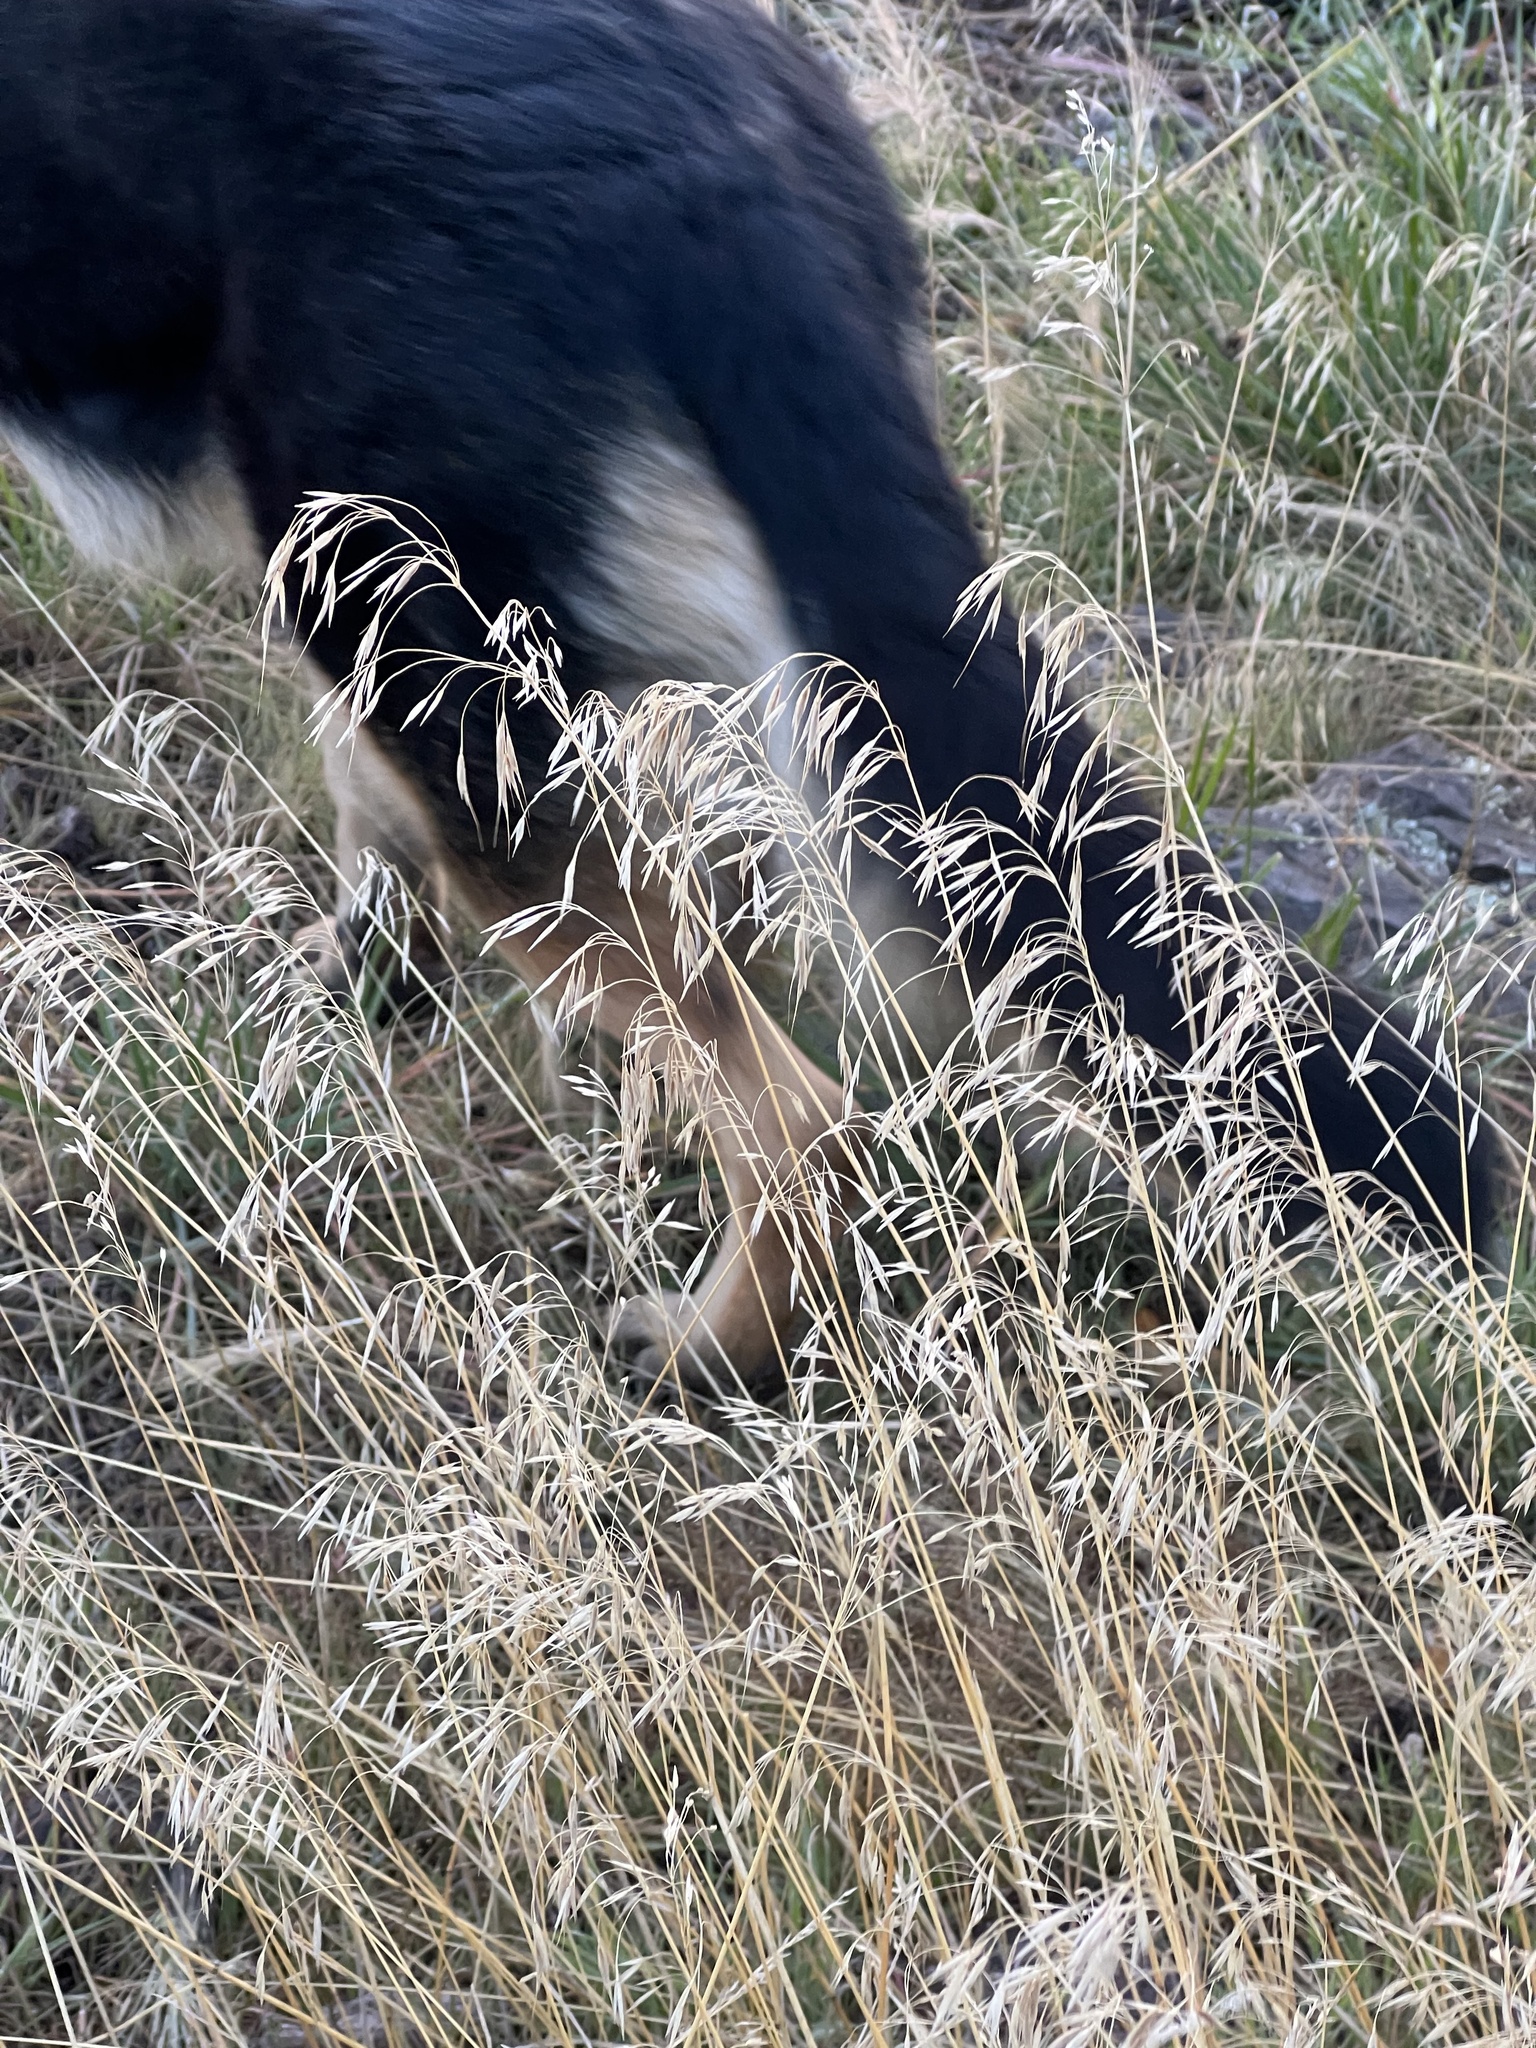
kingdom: Plantae
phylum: Tracheophyta
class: Liliopsida
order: Poales
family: Poaceae
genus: Bromus
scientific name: Bromus tectorum
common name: Cheatgrass
